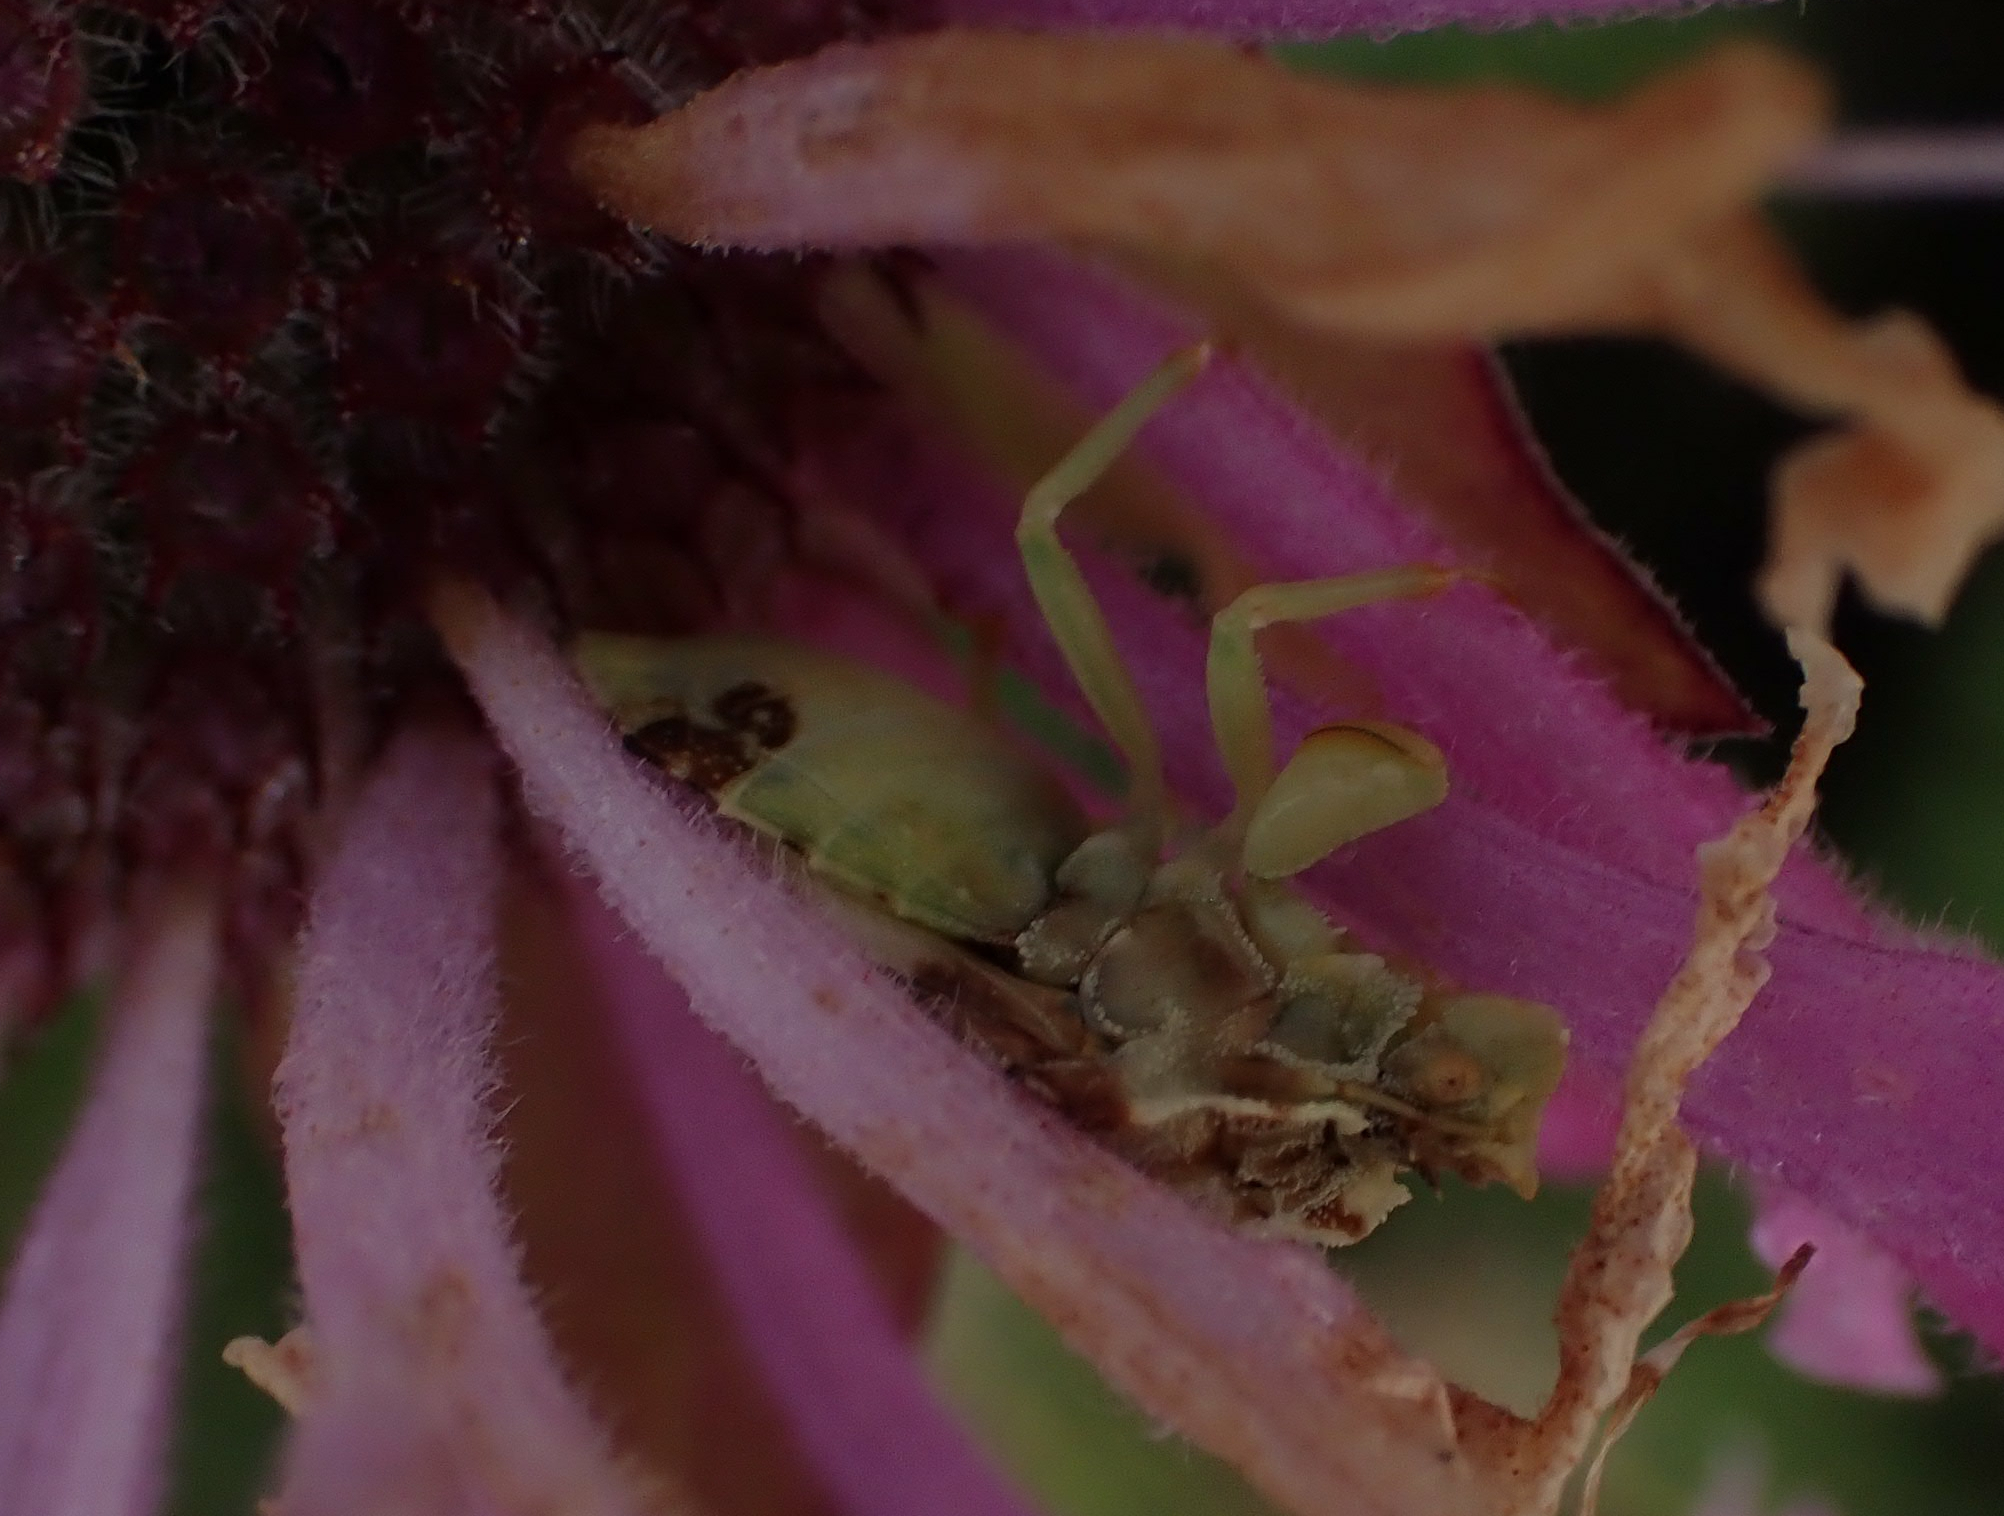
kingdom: Animalia
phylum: Arthropoda
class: Insecta
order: Hemiptera
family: Reduviidae
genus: Phymata
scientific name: Phymata americana
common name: Jagged ambush bug
